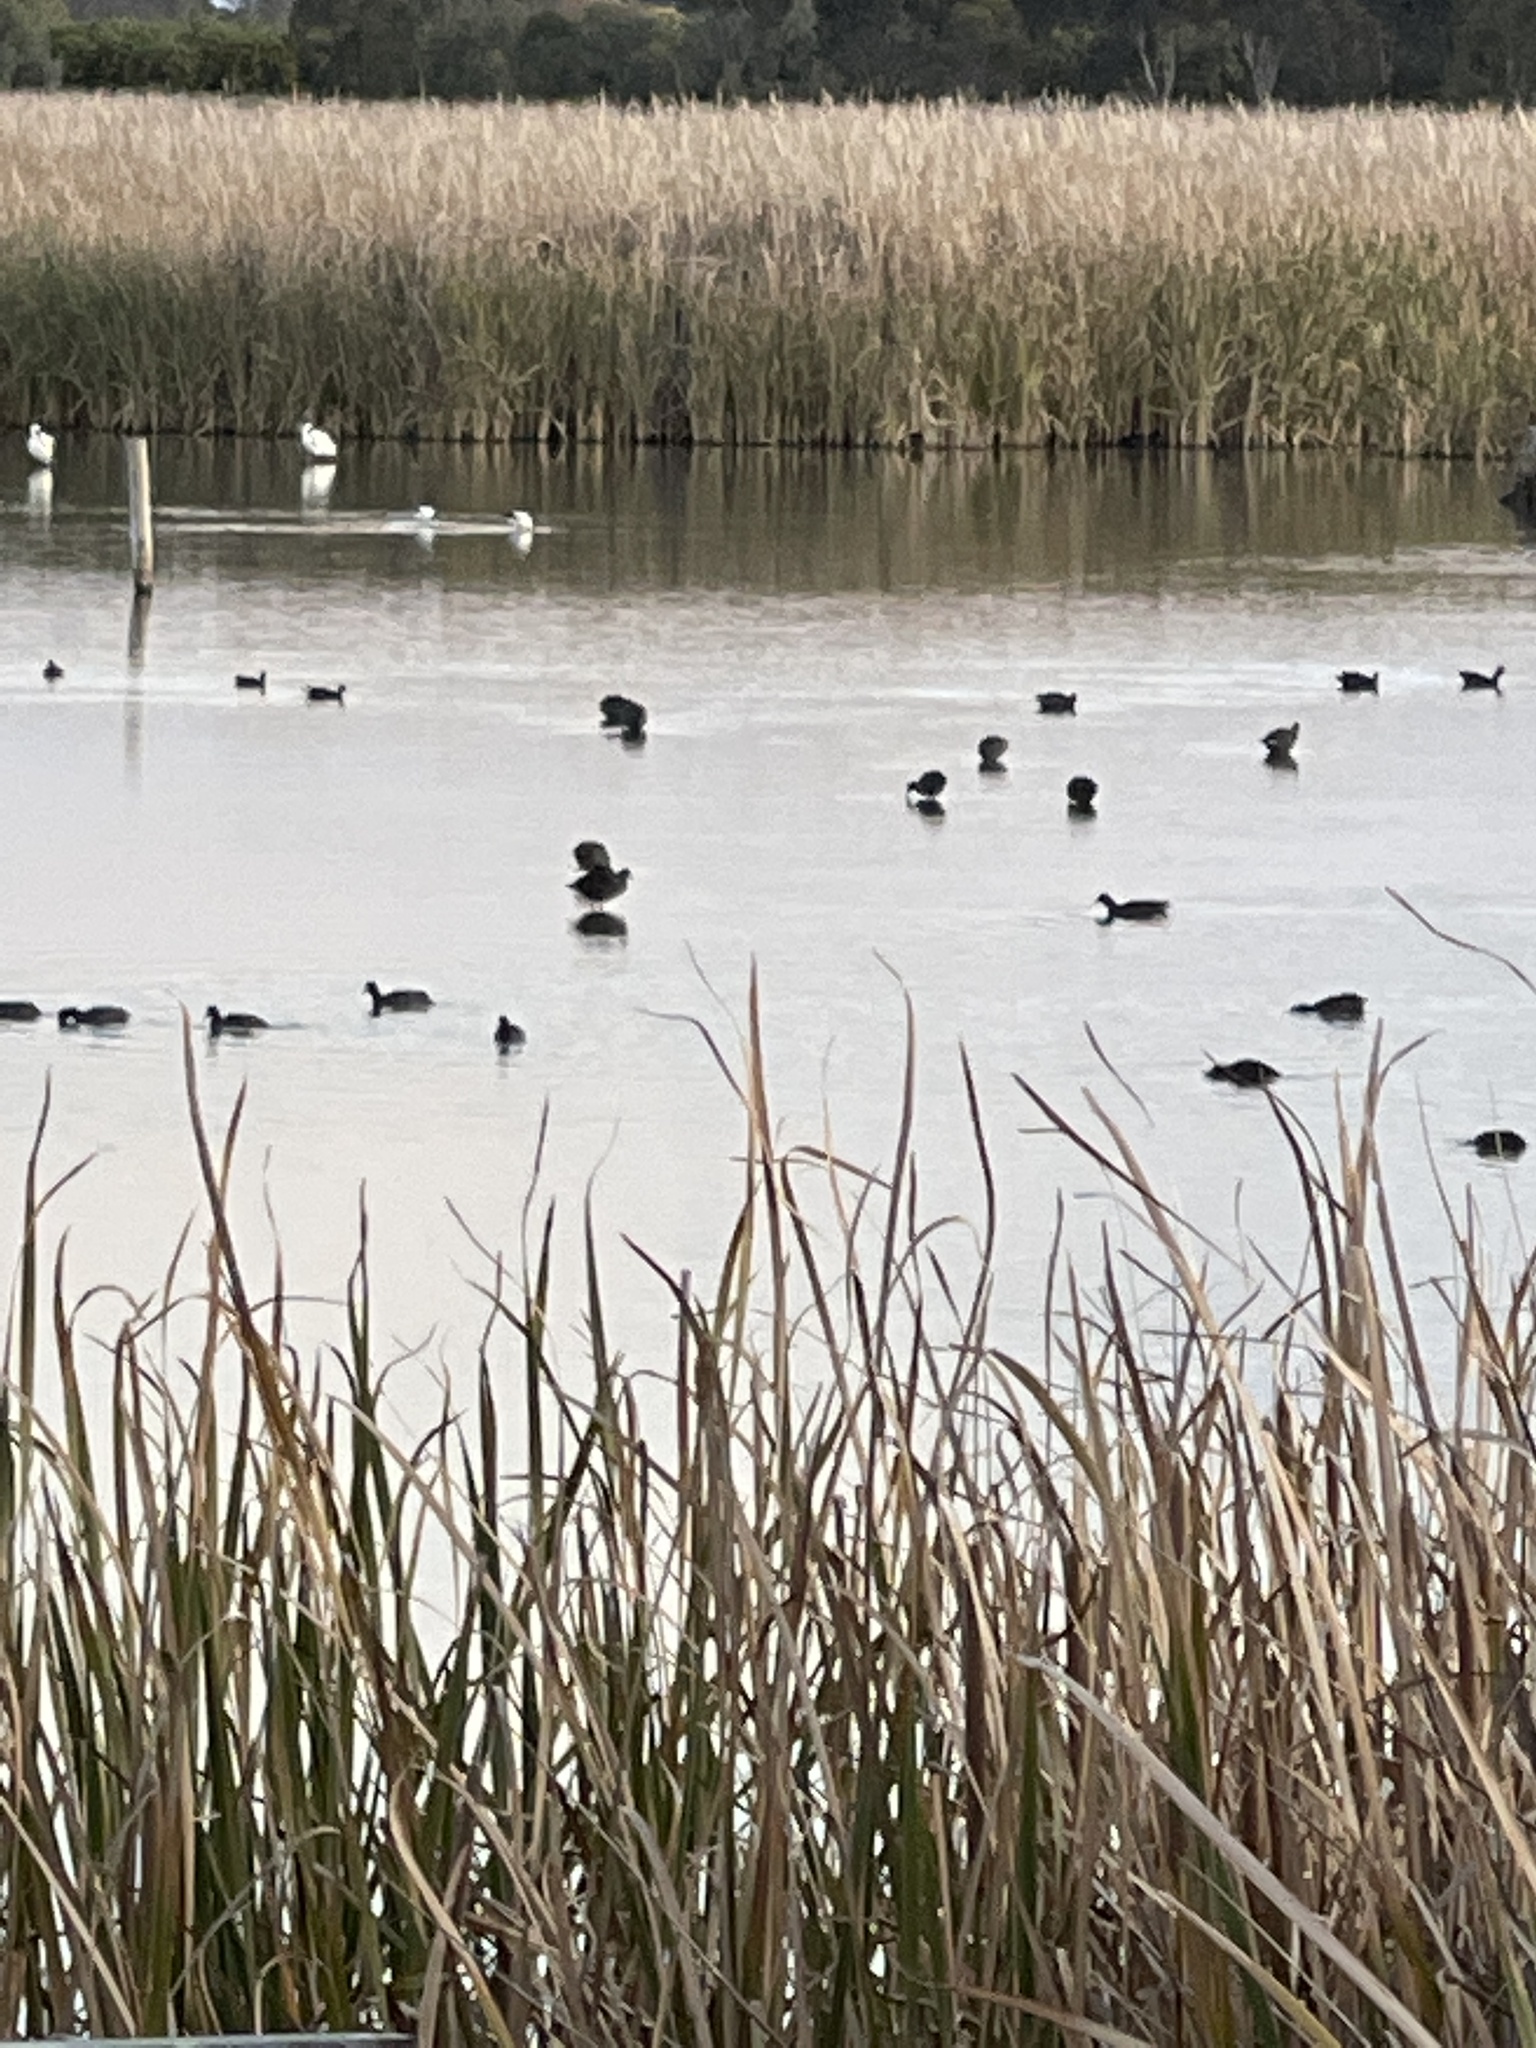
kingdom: Animalia
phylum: Chordata
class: Aves
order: Gruiformes
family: Rallidae
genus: Fulica
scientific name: Fulica atra
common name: Eurasian coot
